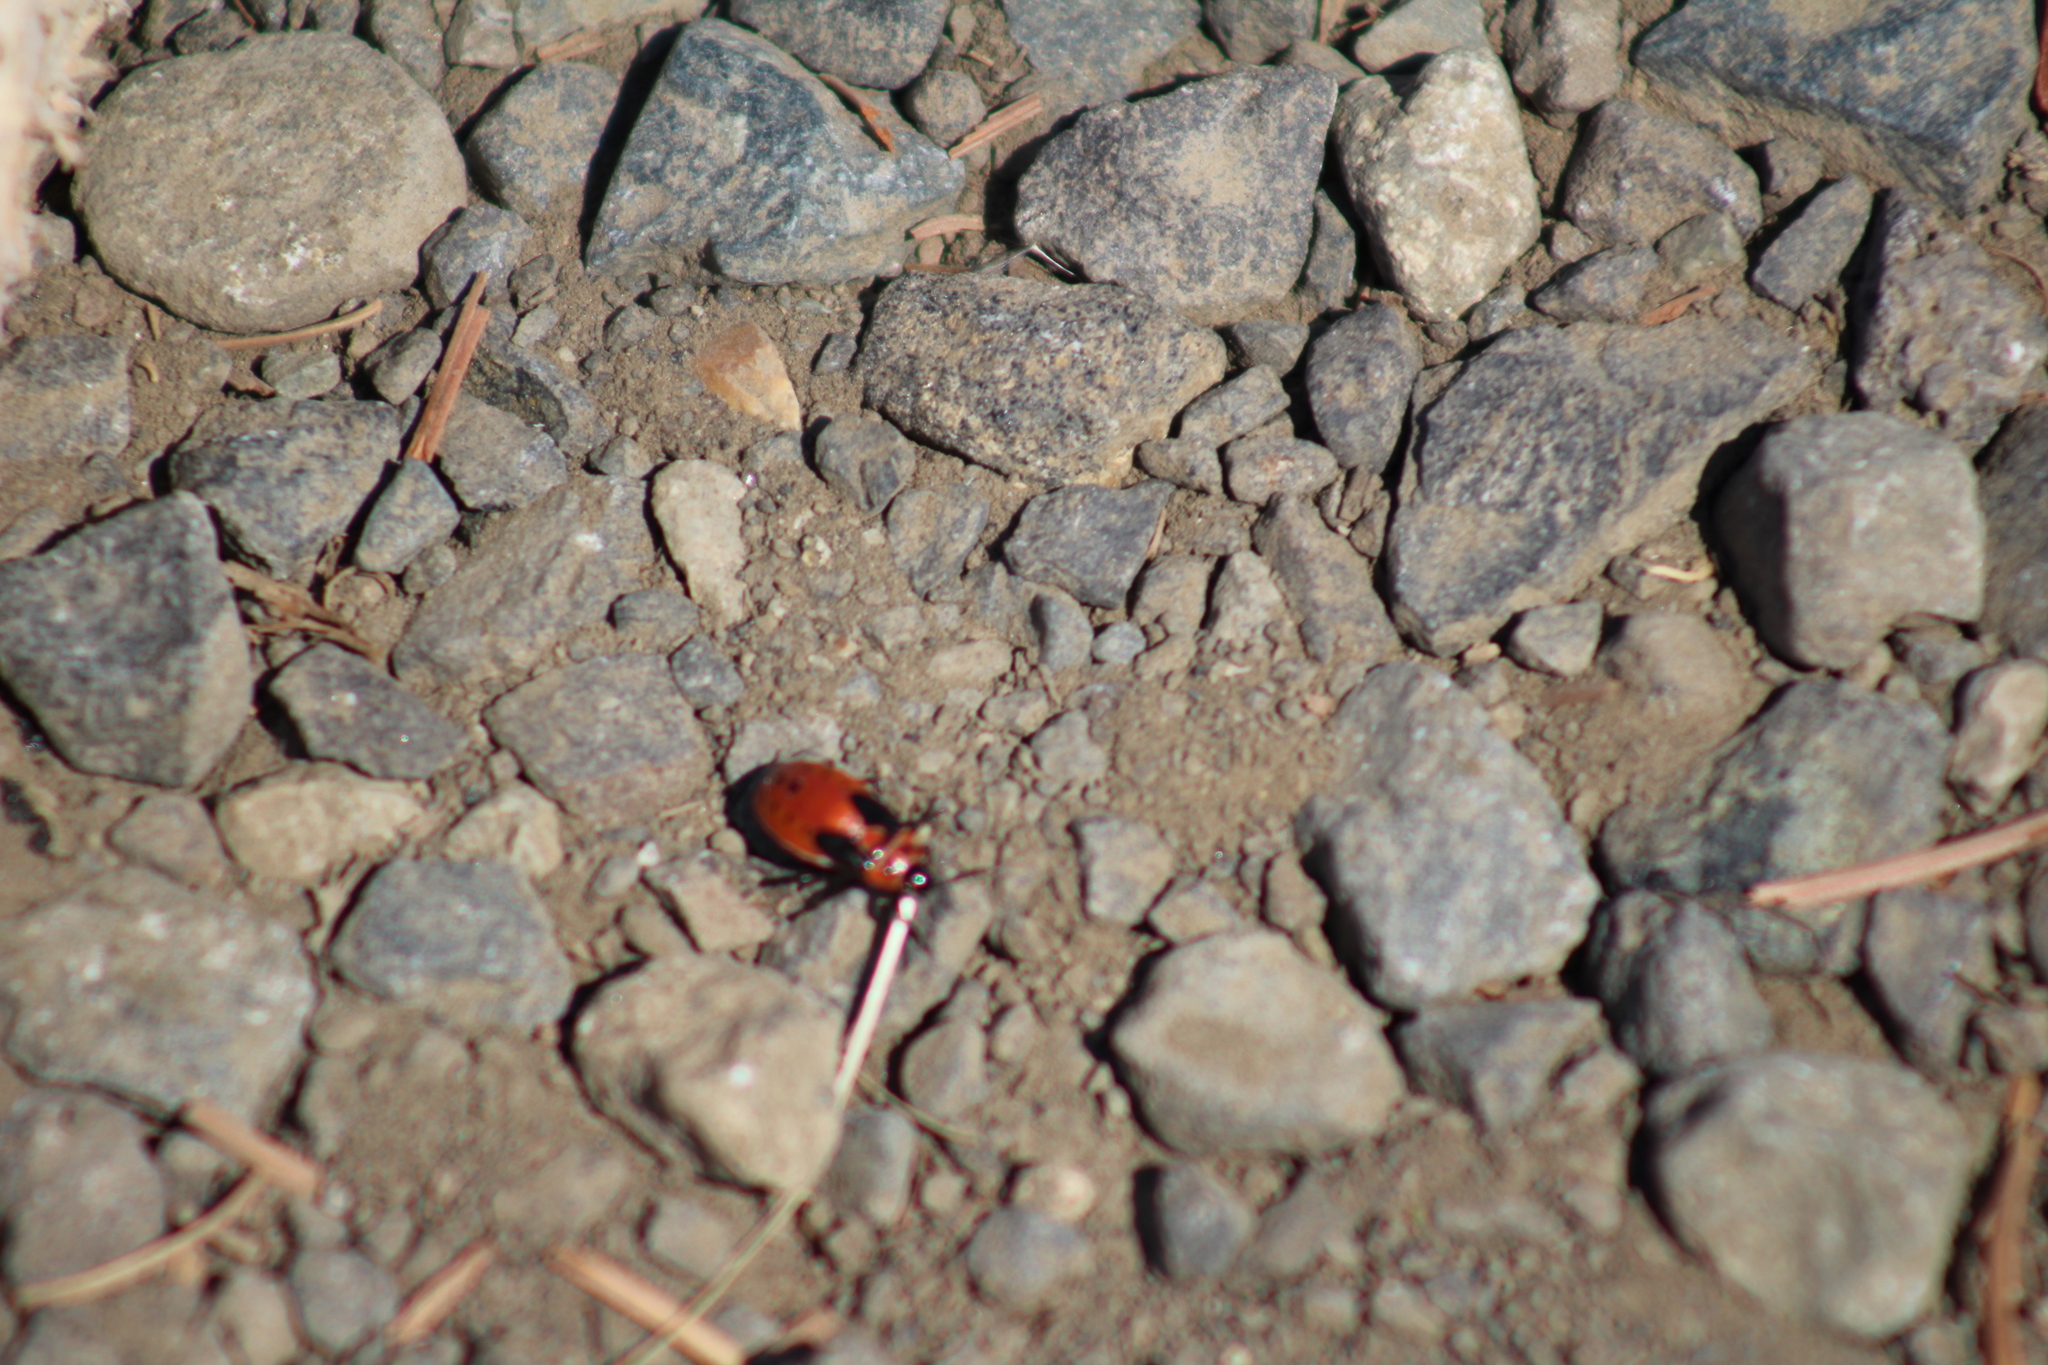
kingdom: Animalia
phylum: Arthropoda
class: Insecta
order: Hemiptera
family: Lygaeidae
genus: Lygaeus
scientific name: Lygaeus kalmii
